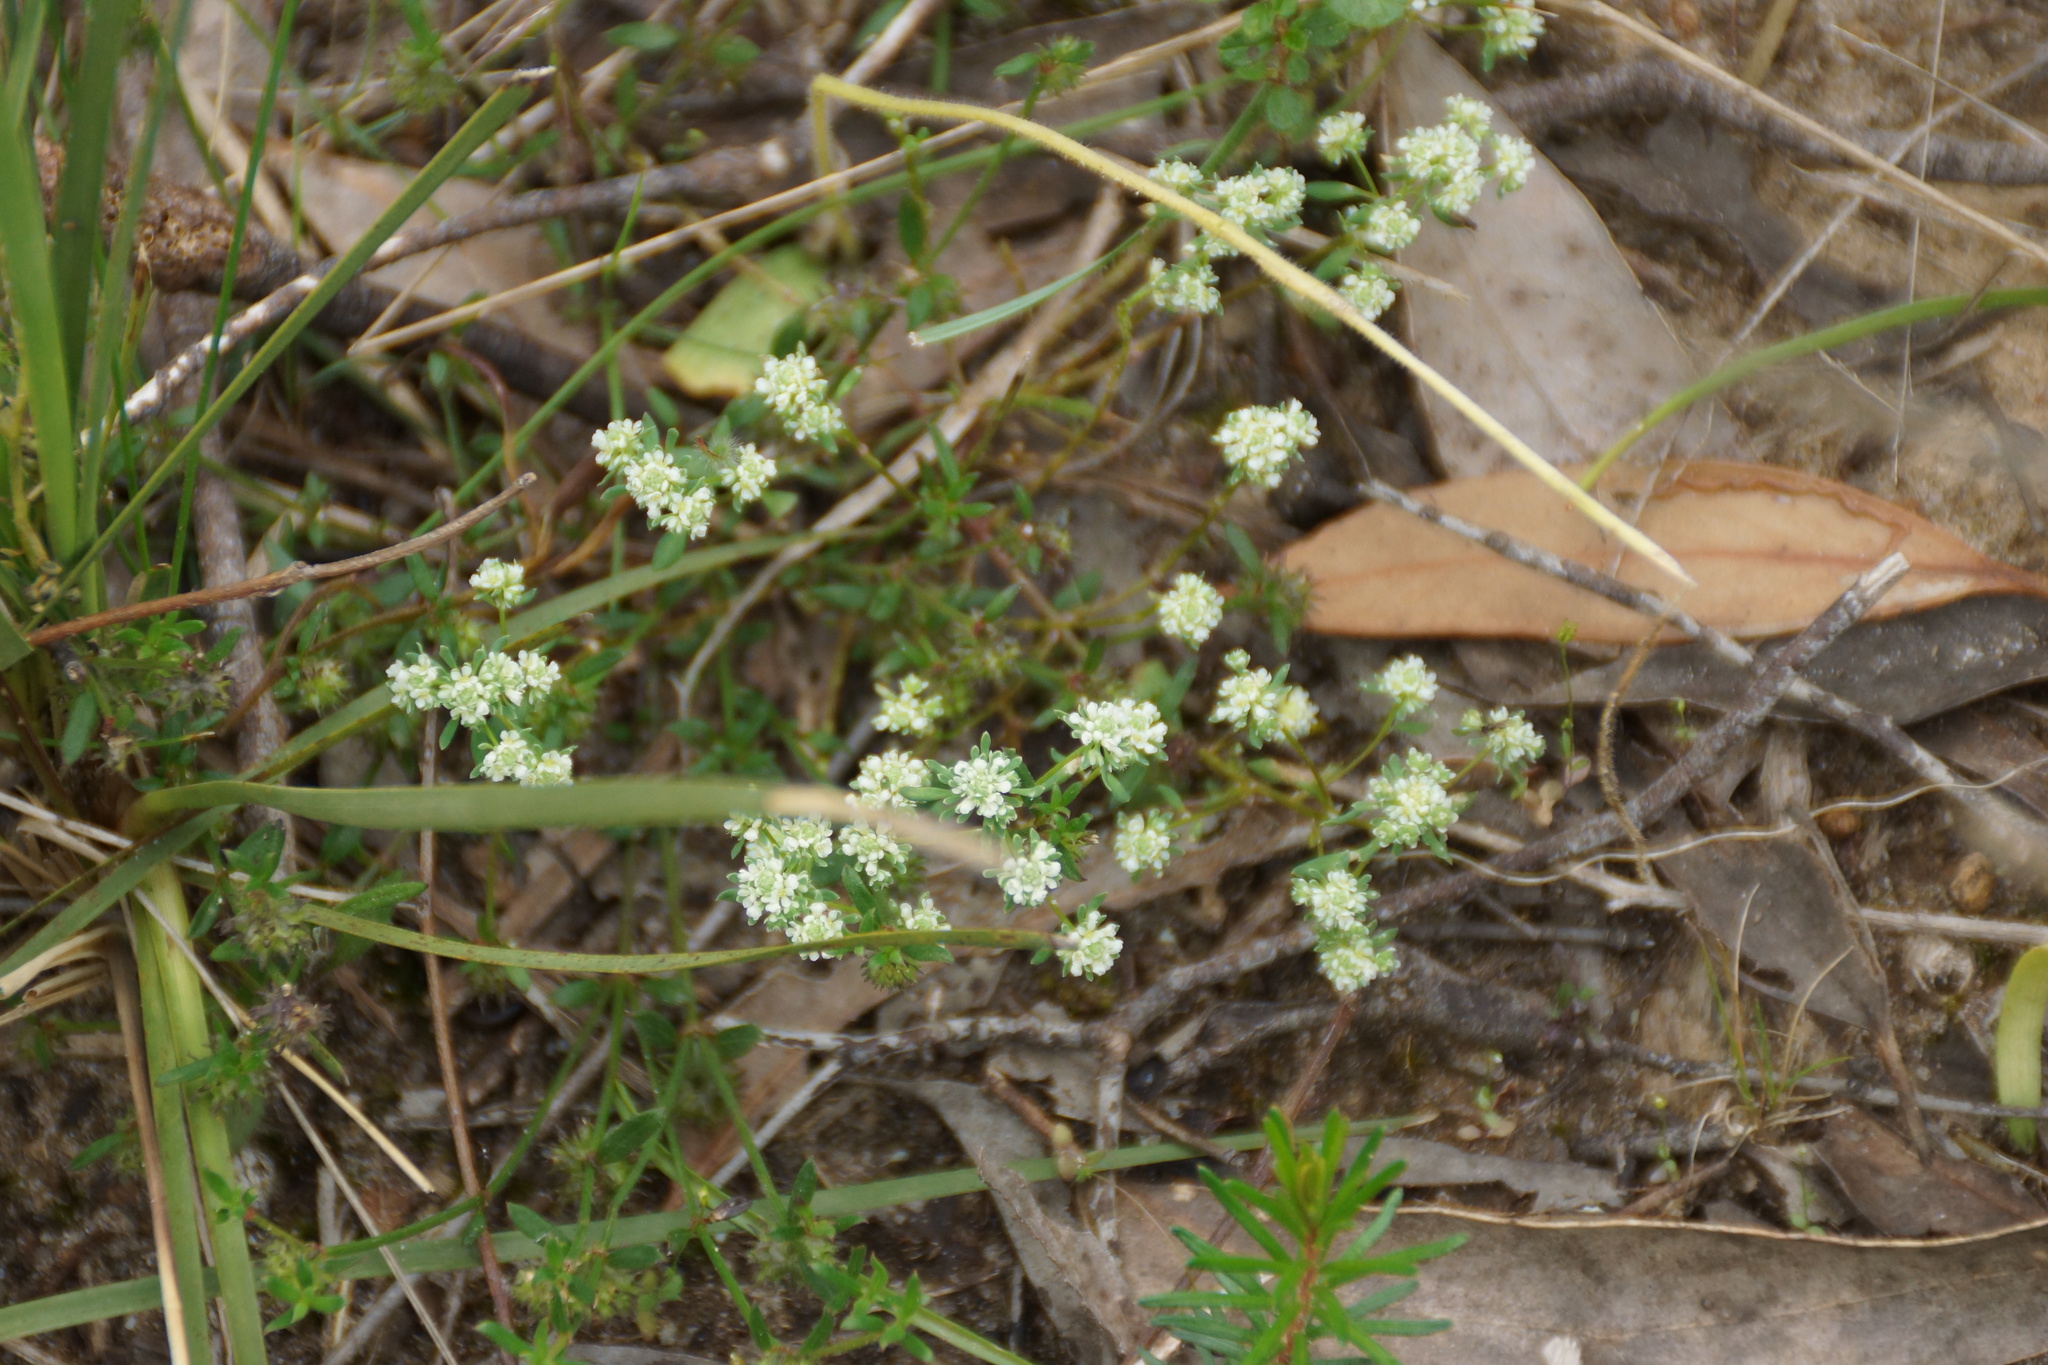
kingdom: Plantae
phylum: Tracheophyta
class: Magnoliopsida
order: Malpighiales
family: Phyllanthaceae
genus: Poranthera
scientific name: Poranthera microphylla
